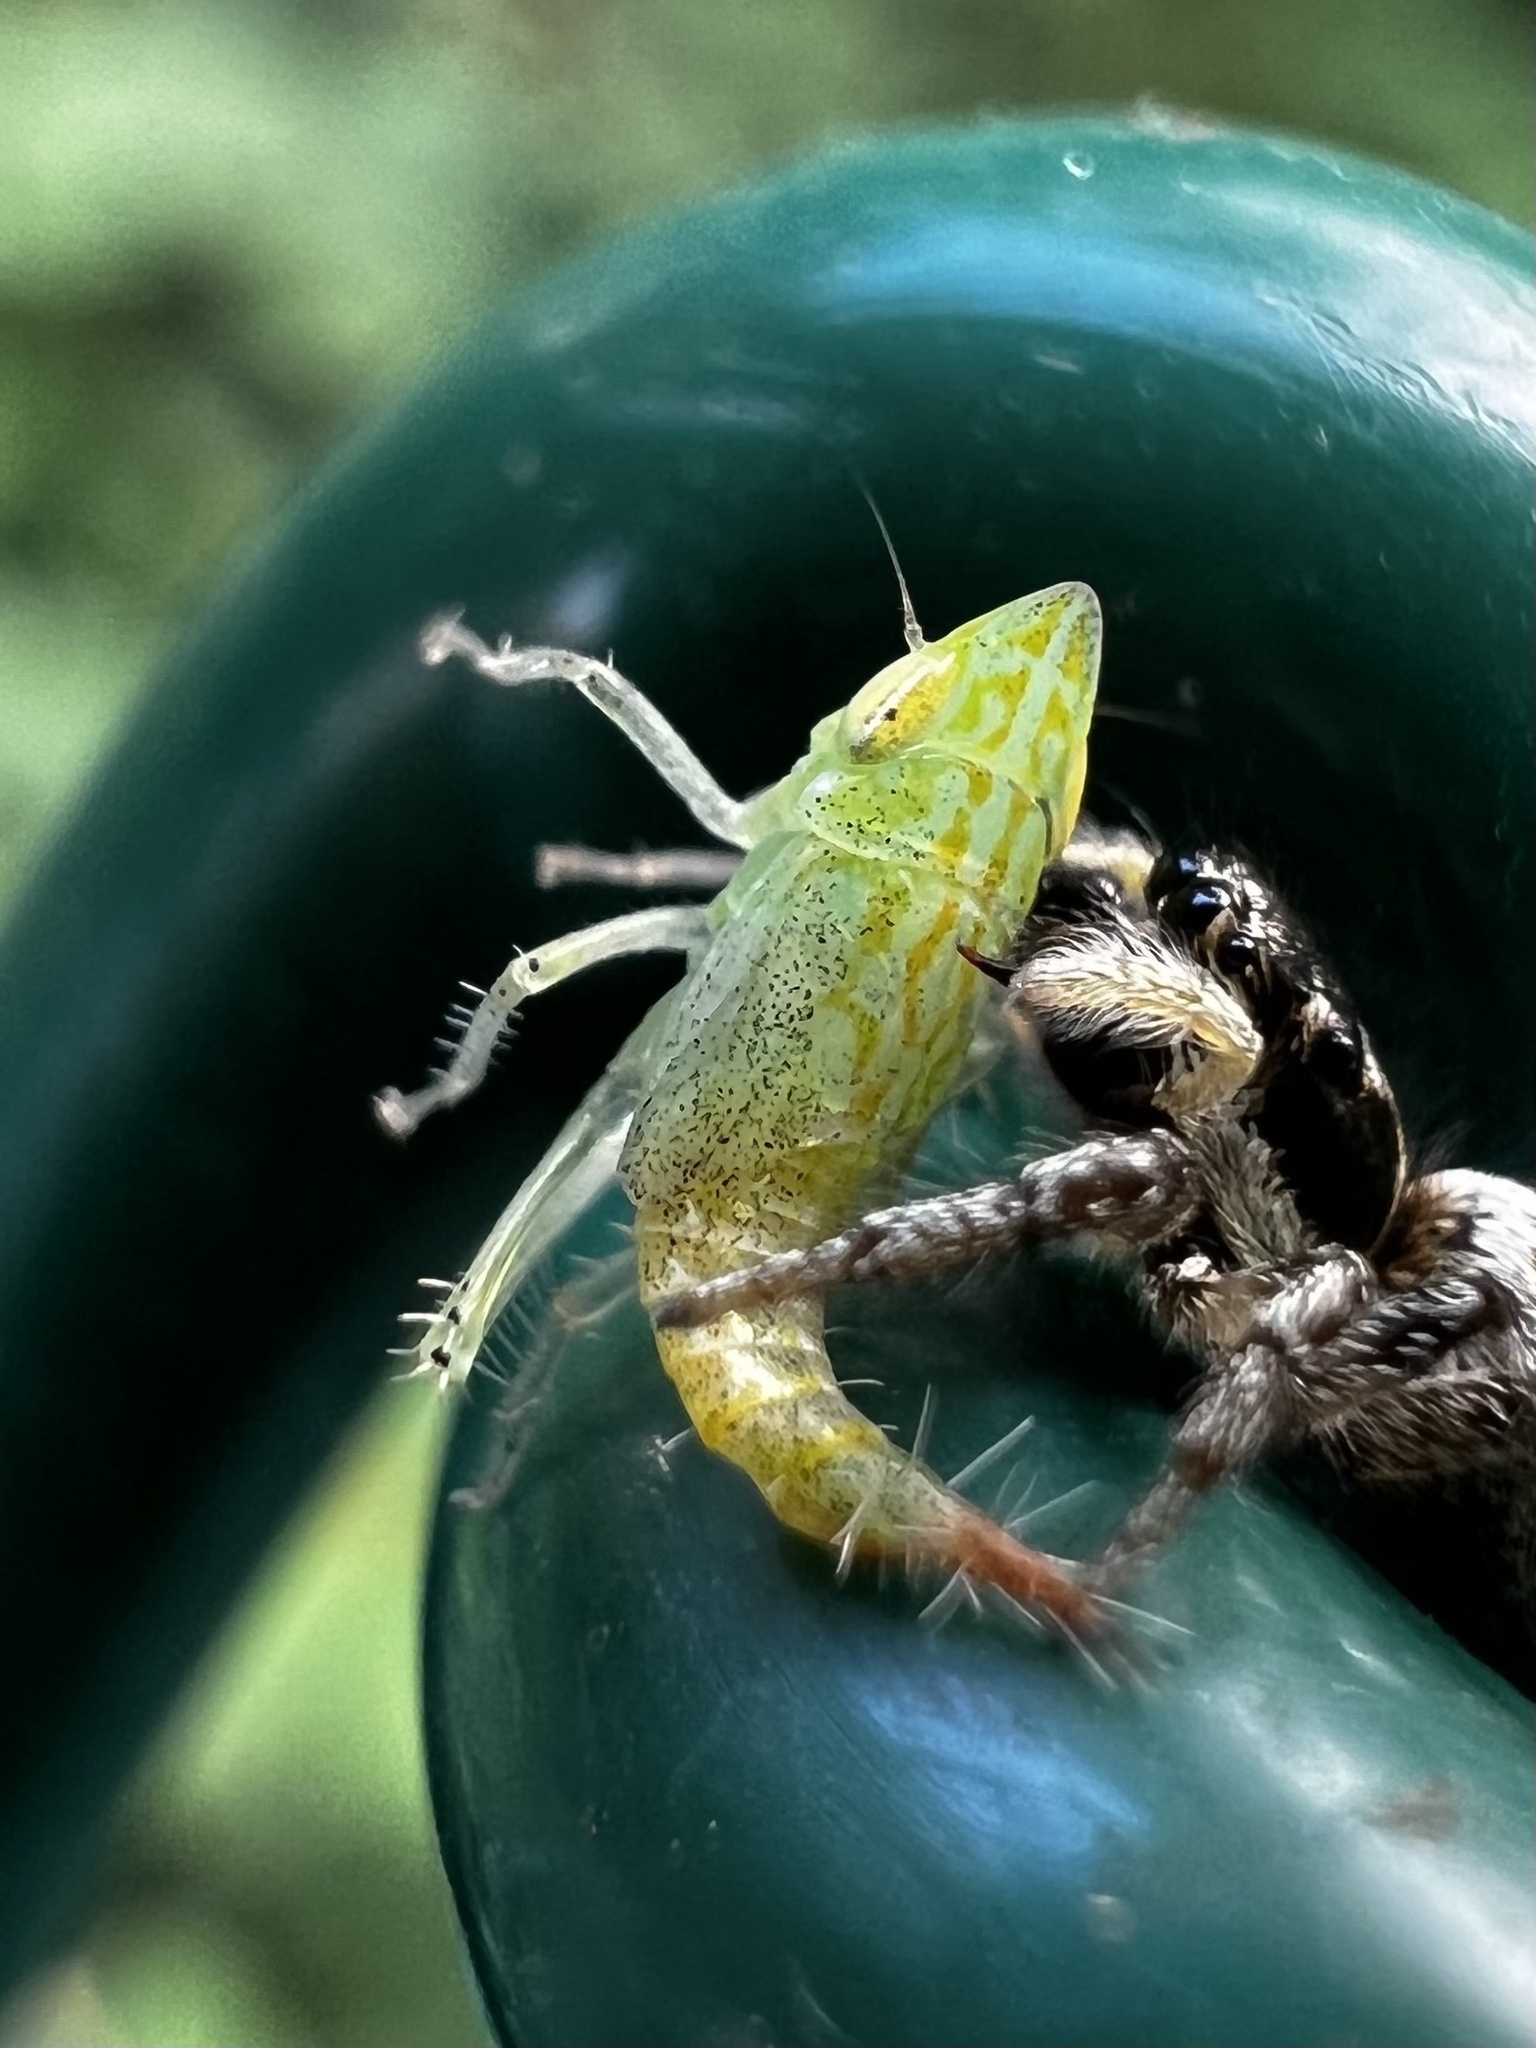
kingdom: Animalia
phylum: Arthropoda
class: Insecta
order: Hemiptera
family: Cicadellidae
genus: Fieberiella
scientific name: Fieberiella florii
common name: Flor’s leafhopper
